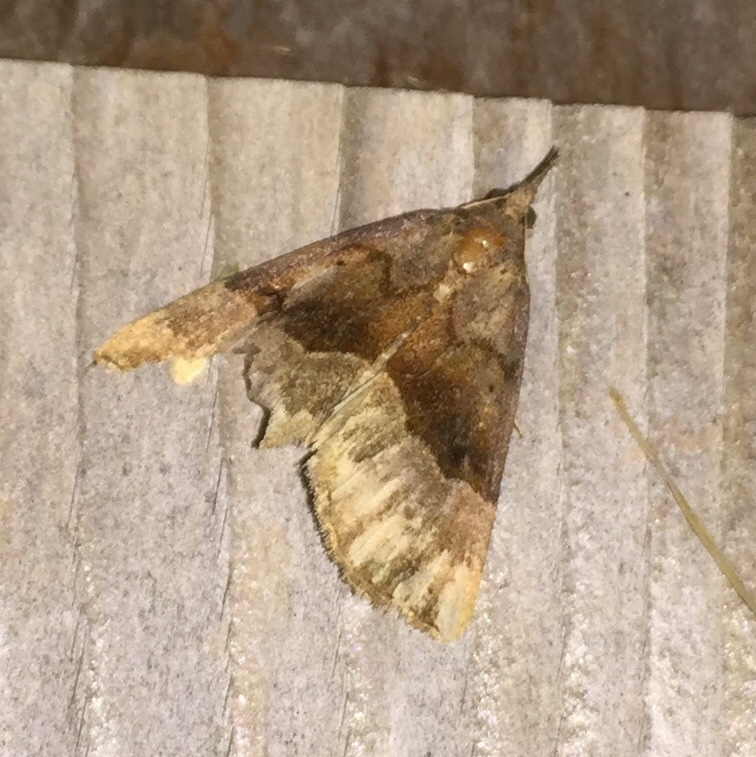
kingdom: Animalia
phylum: Arthropoda
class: Insecta
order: Lepidoptera
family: Erebidae
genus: Hypena
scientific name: Hypena madefactalis
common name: Gray-edged snout
